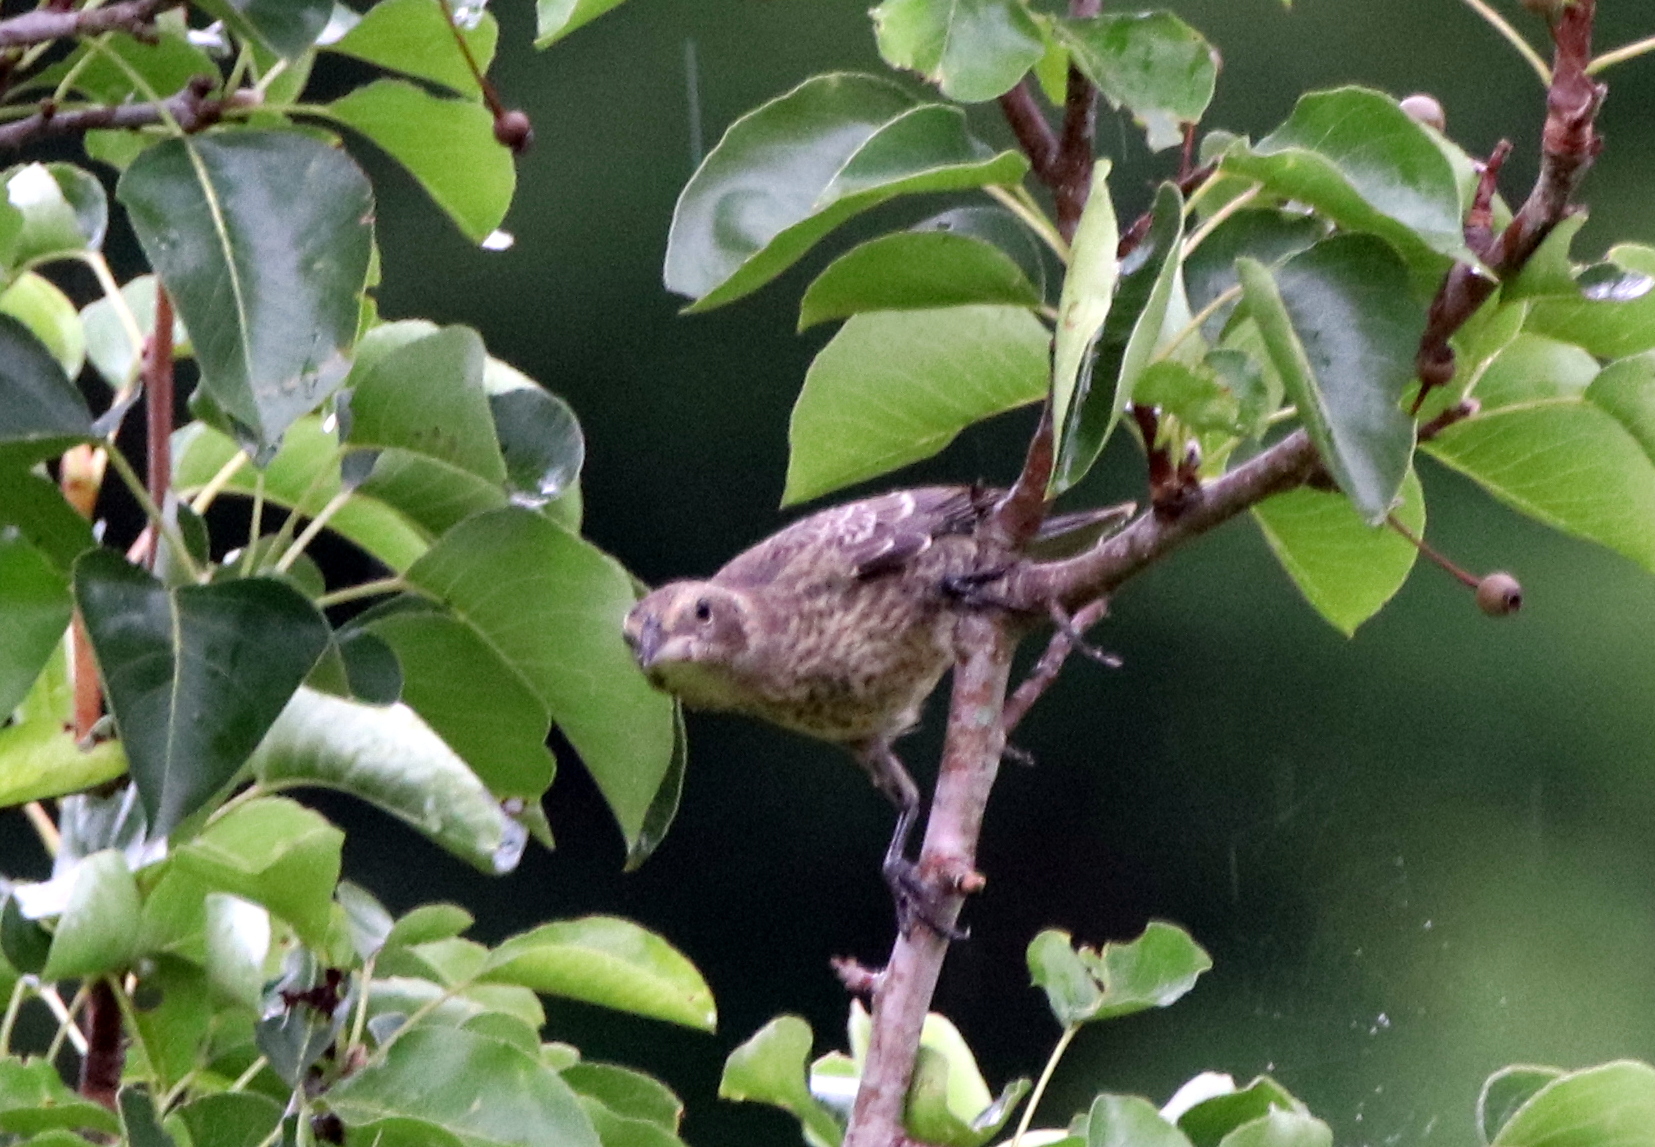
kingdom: Animalia
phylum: Chordata
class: Aves
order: Passeriformes
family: Icteridae
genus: Agelaius
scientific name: Agelaius phoeniceus
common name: Red-winged blackbird
